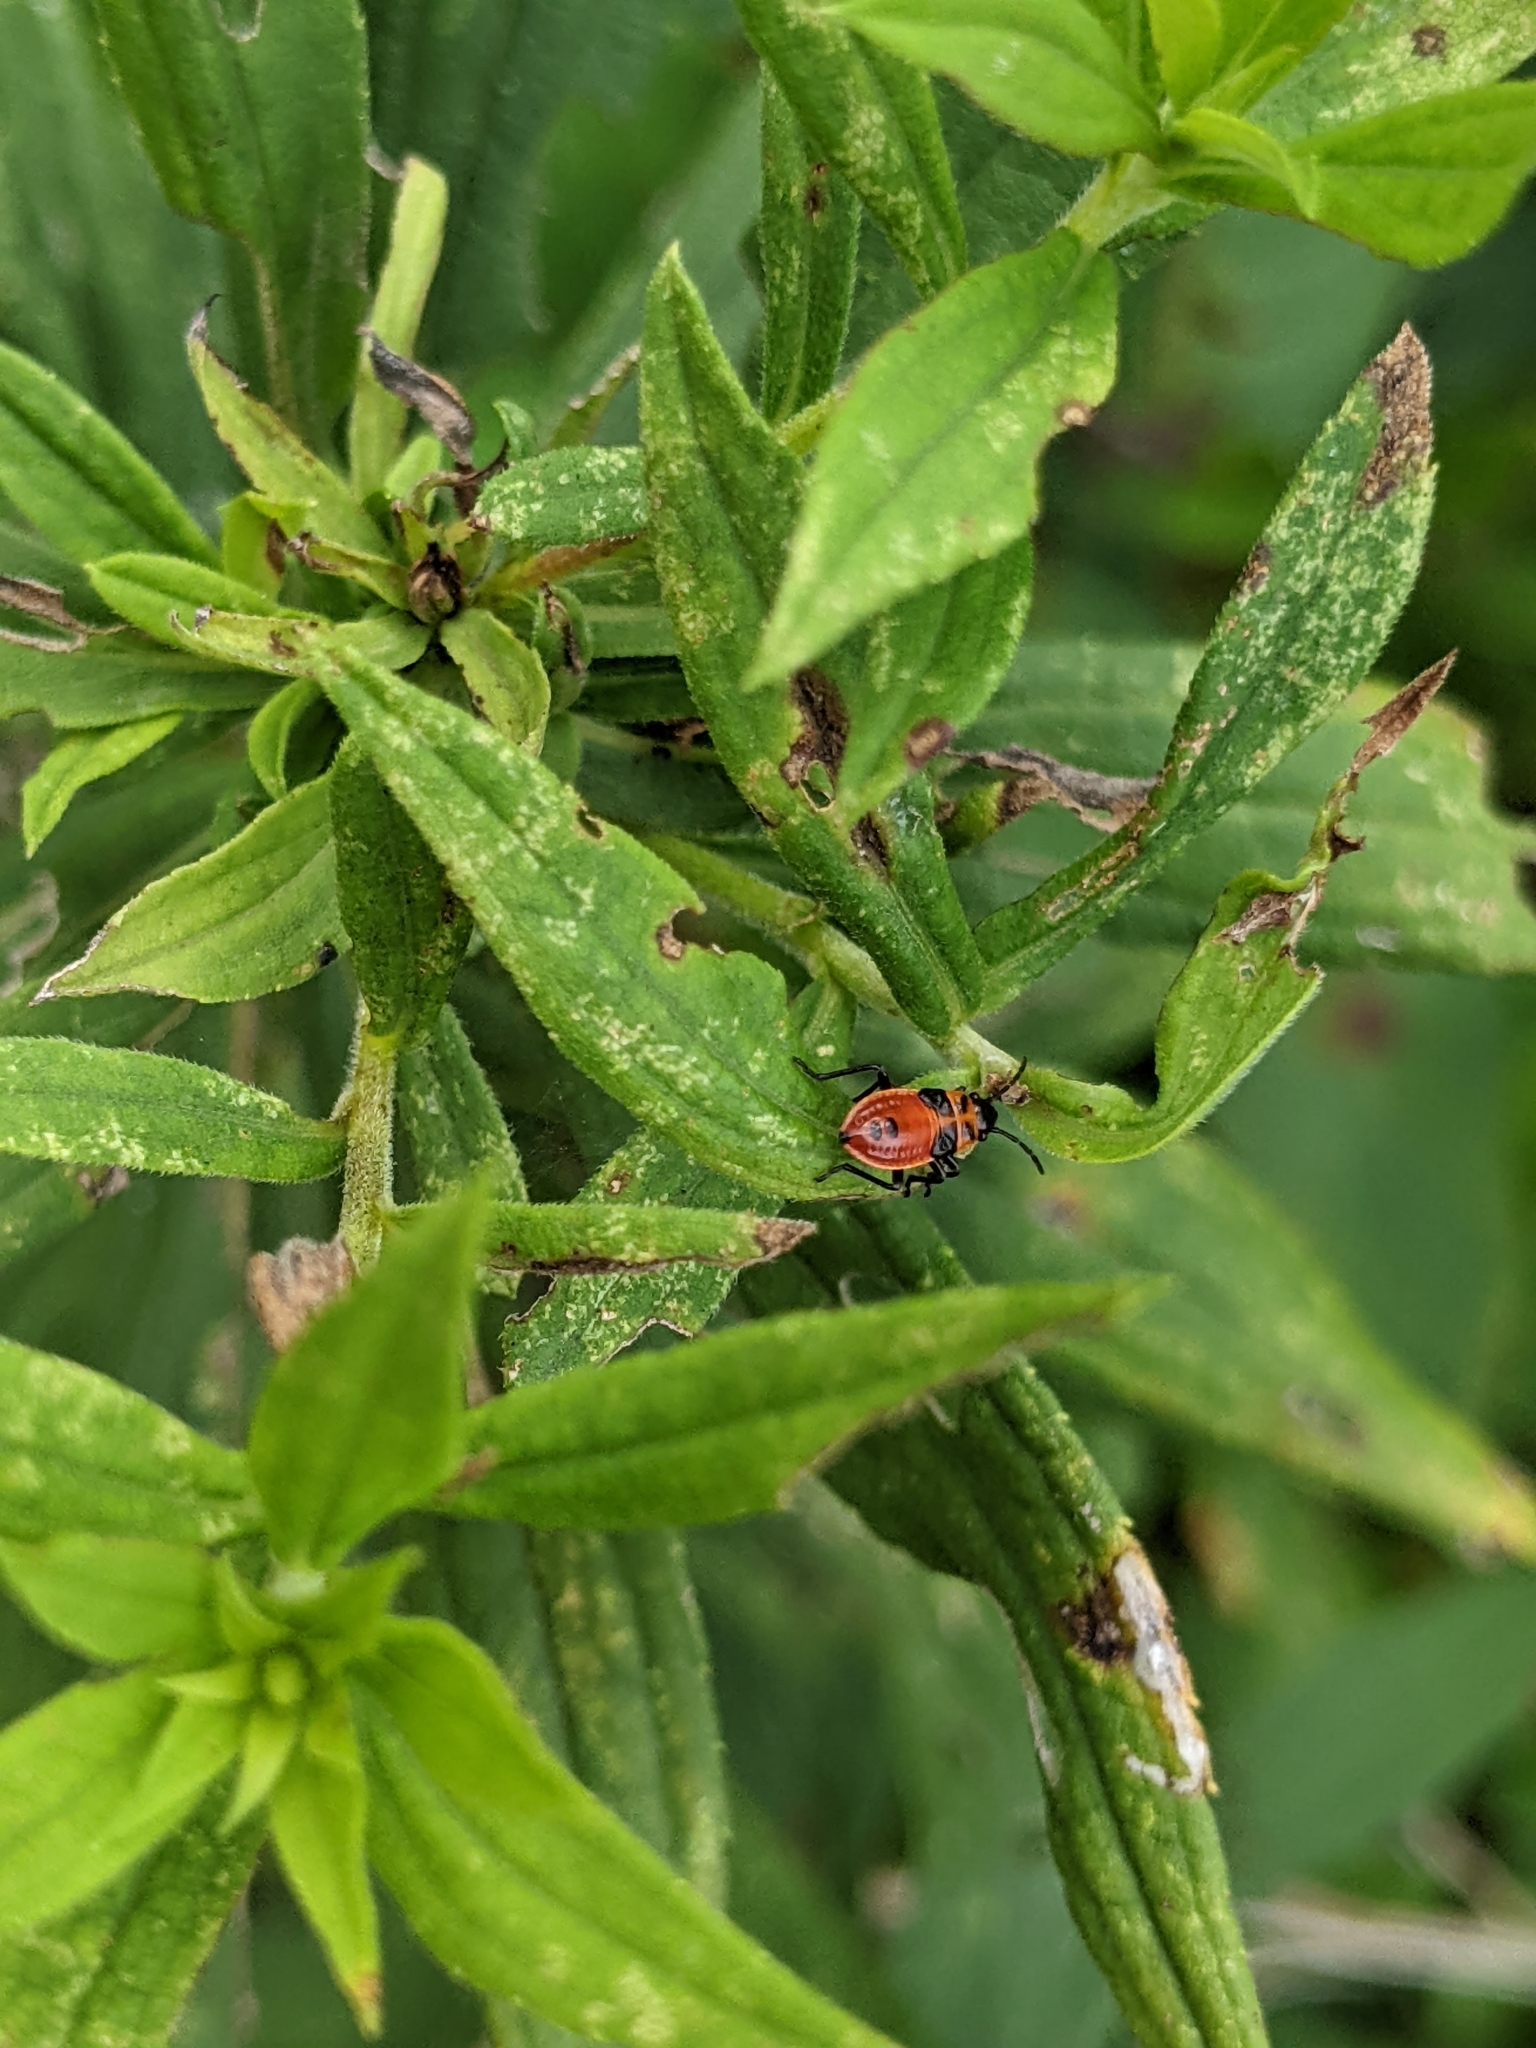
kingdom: Animalia
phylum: Arthropoda
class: Insecta
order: Hemiptera
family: Lygaeidae
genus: Lygaeus
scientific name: Lygaeus turcicus
